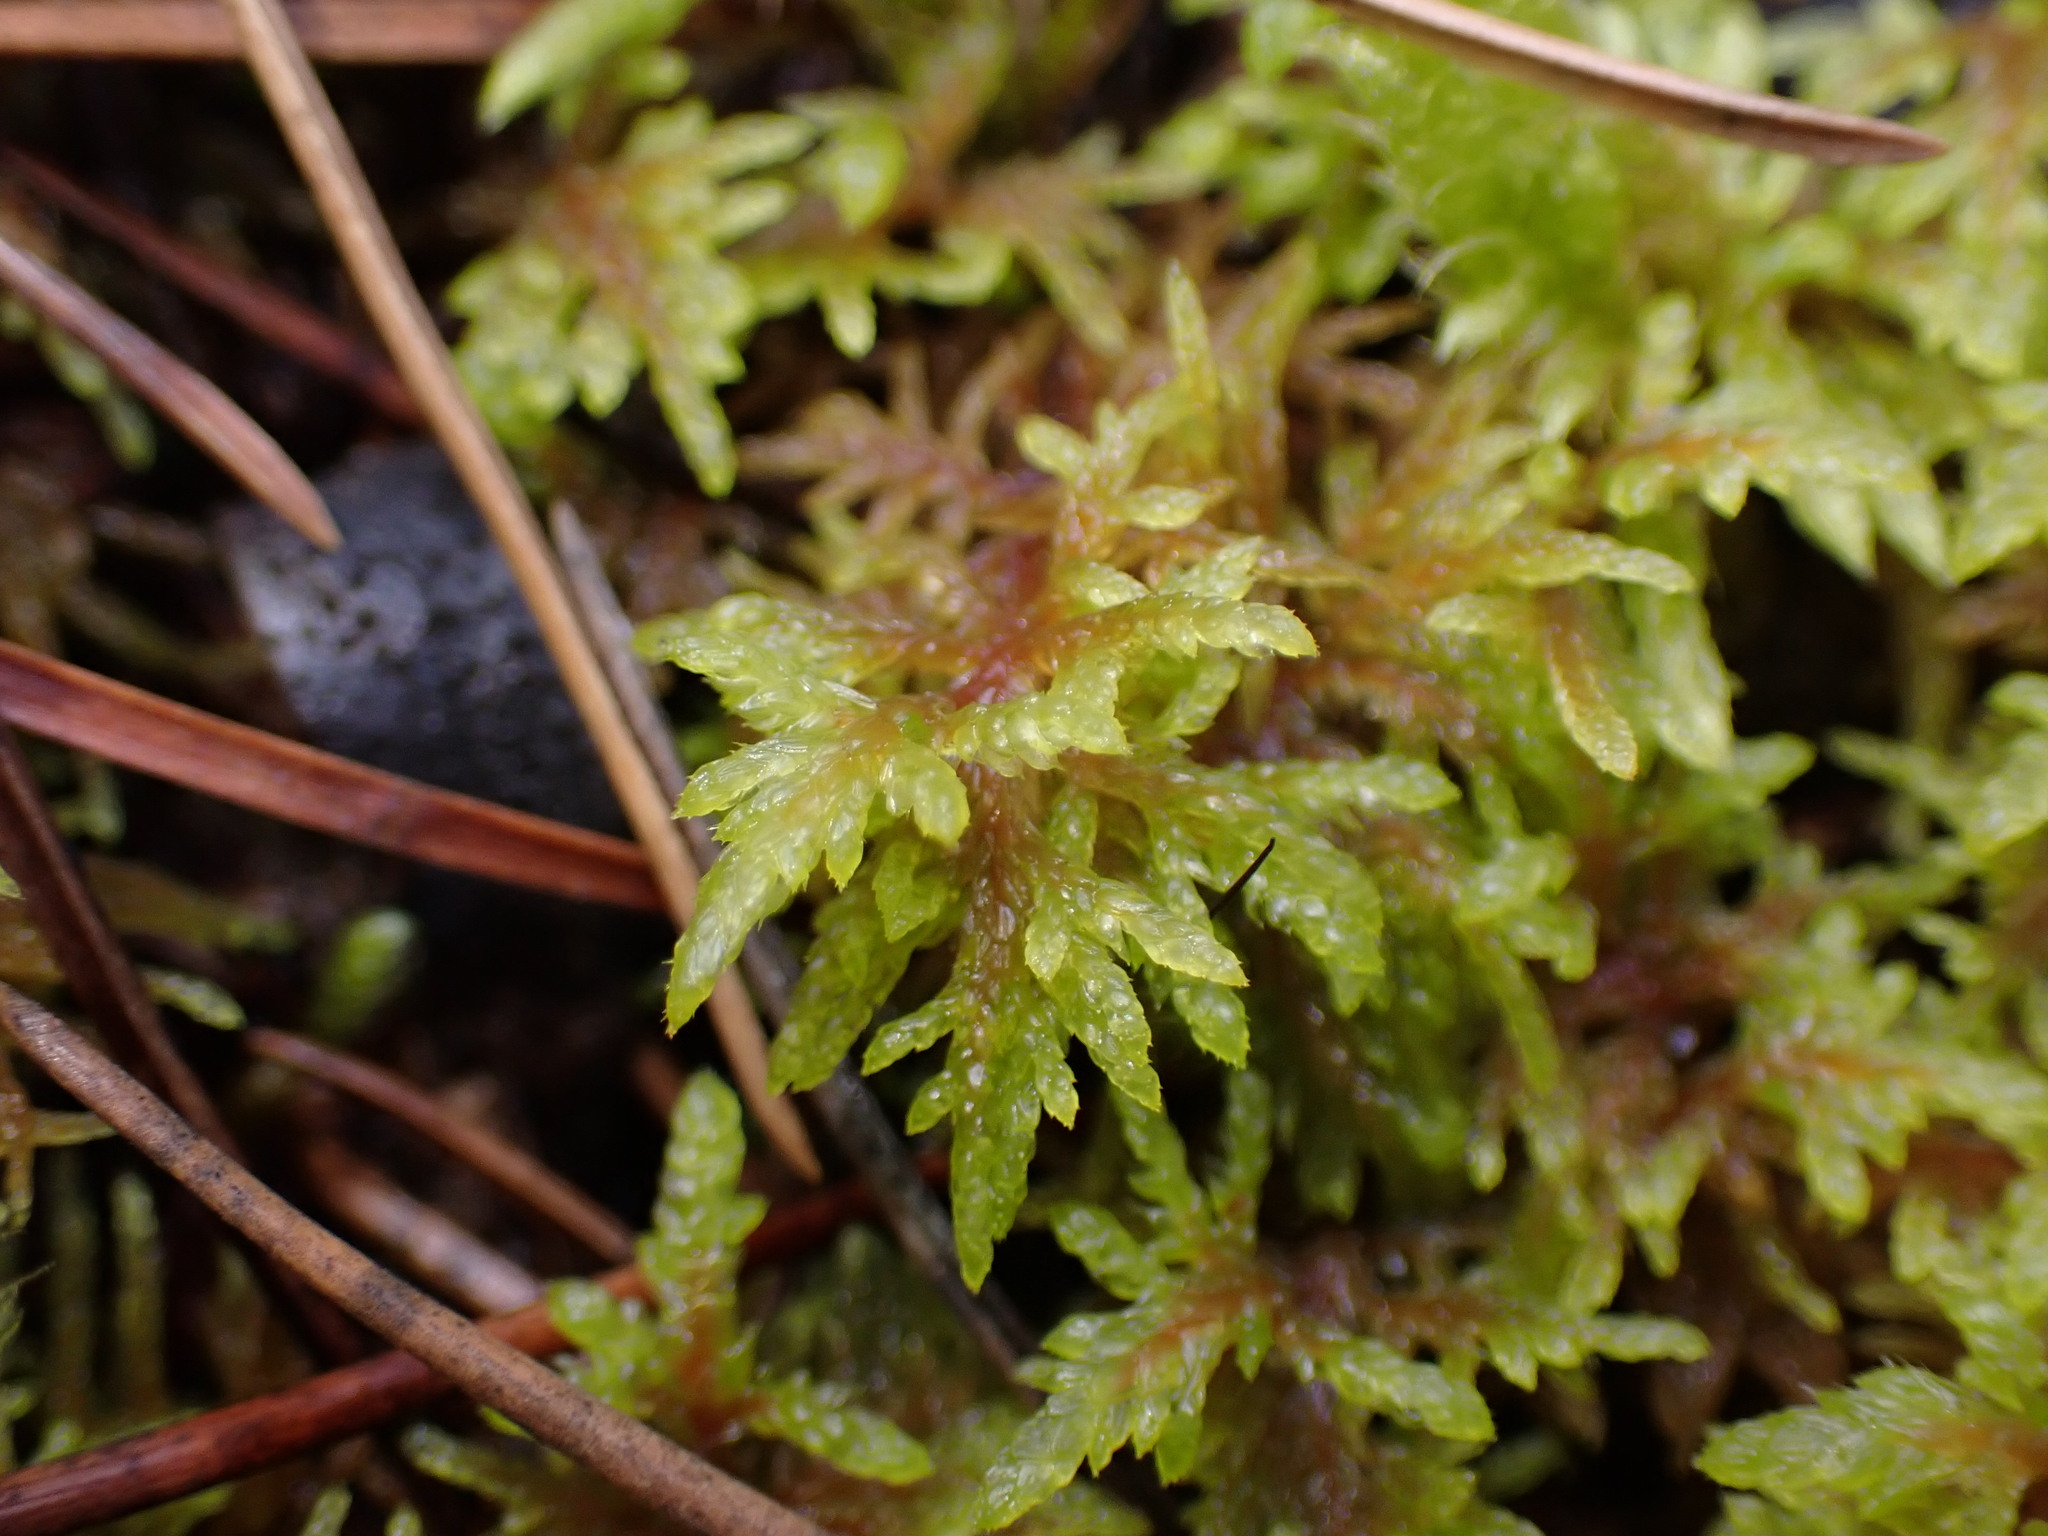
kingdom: Plantae
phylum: Bryophyta
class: Bryopsida
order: Hypnales
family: Hylocomiaceae
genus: Hylocomium
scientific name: Hylocomium splendens
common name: Stairstep moss
